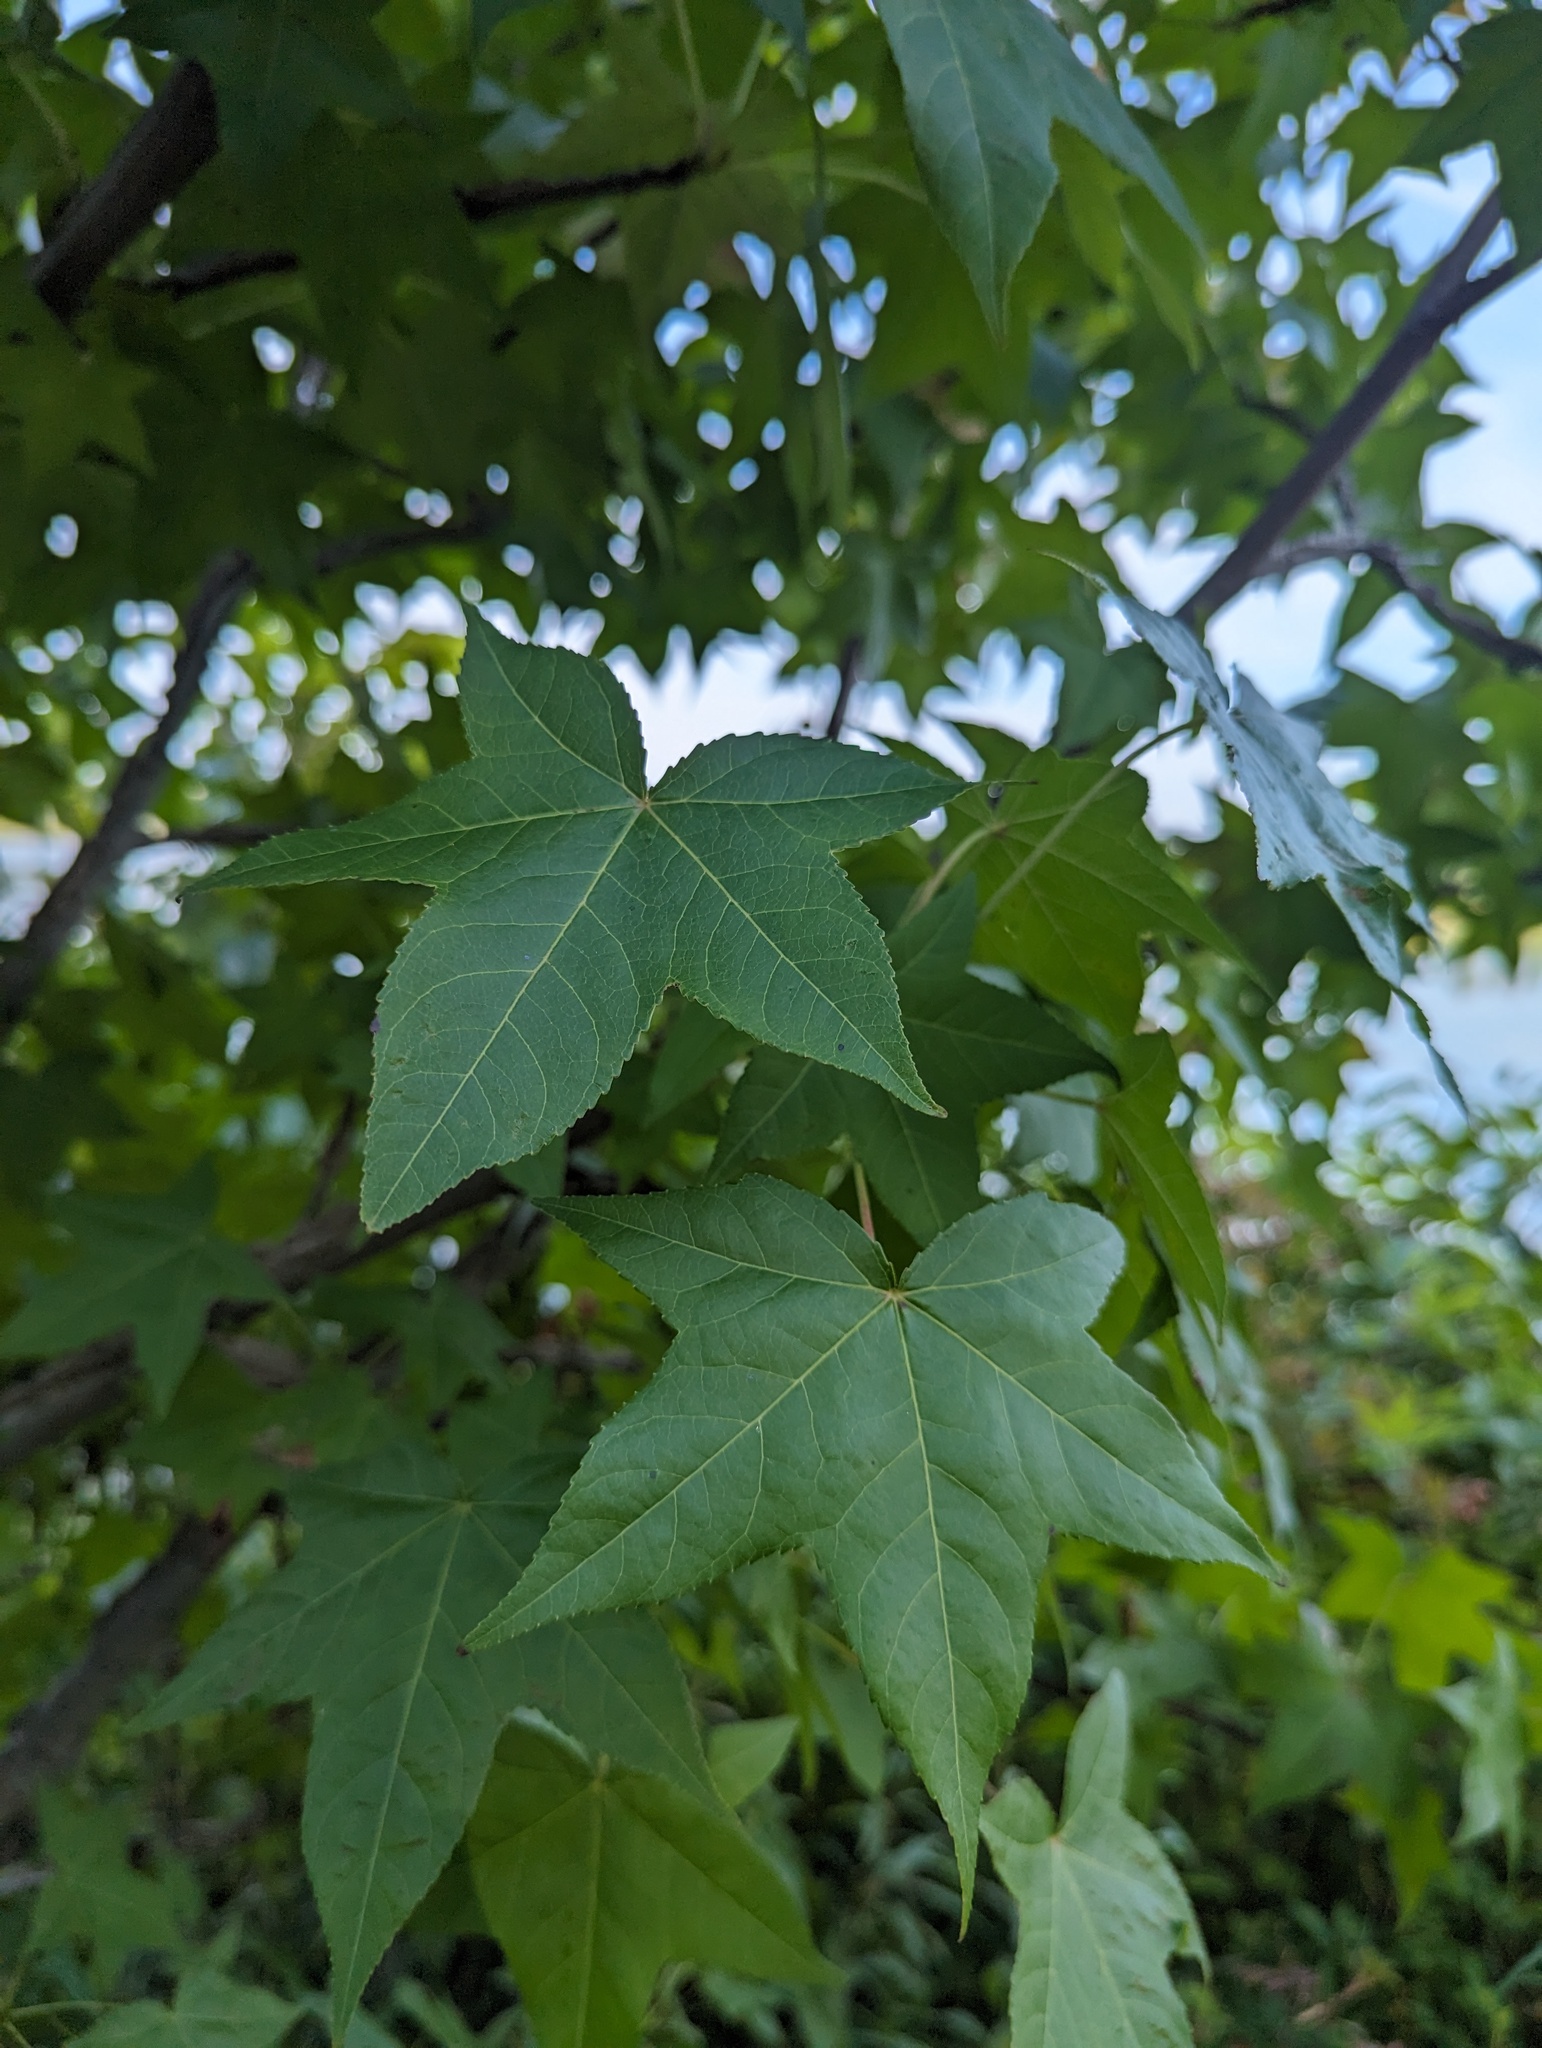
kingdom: Plantae
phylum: Tracheophyta
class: Magnoliopsida
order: Saxifragales
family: Altingiaceae
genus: Liquidambar
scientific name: Liquidambar styraciflua
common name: Sweet gum
